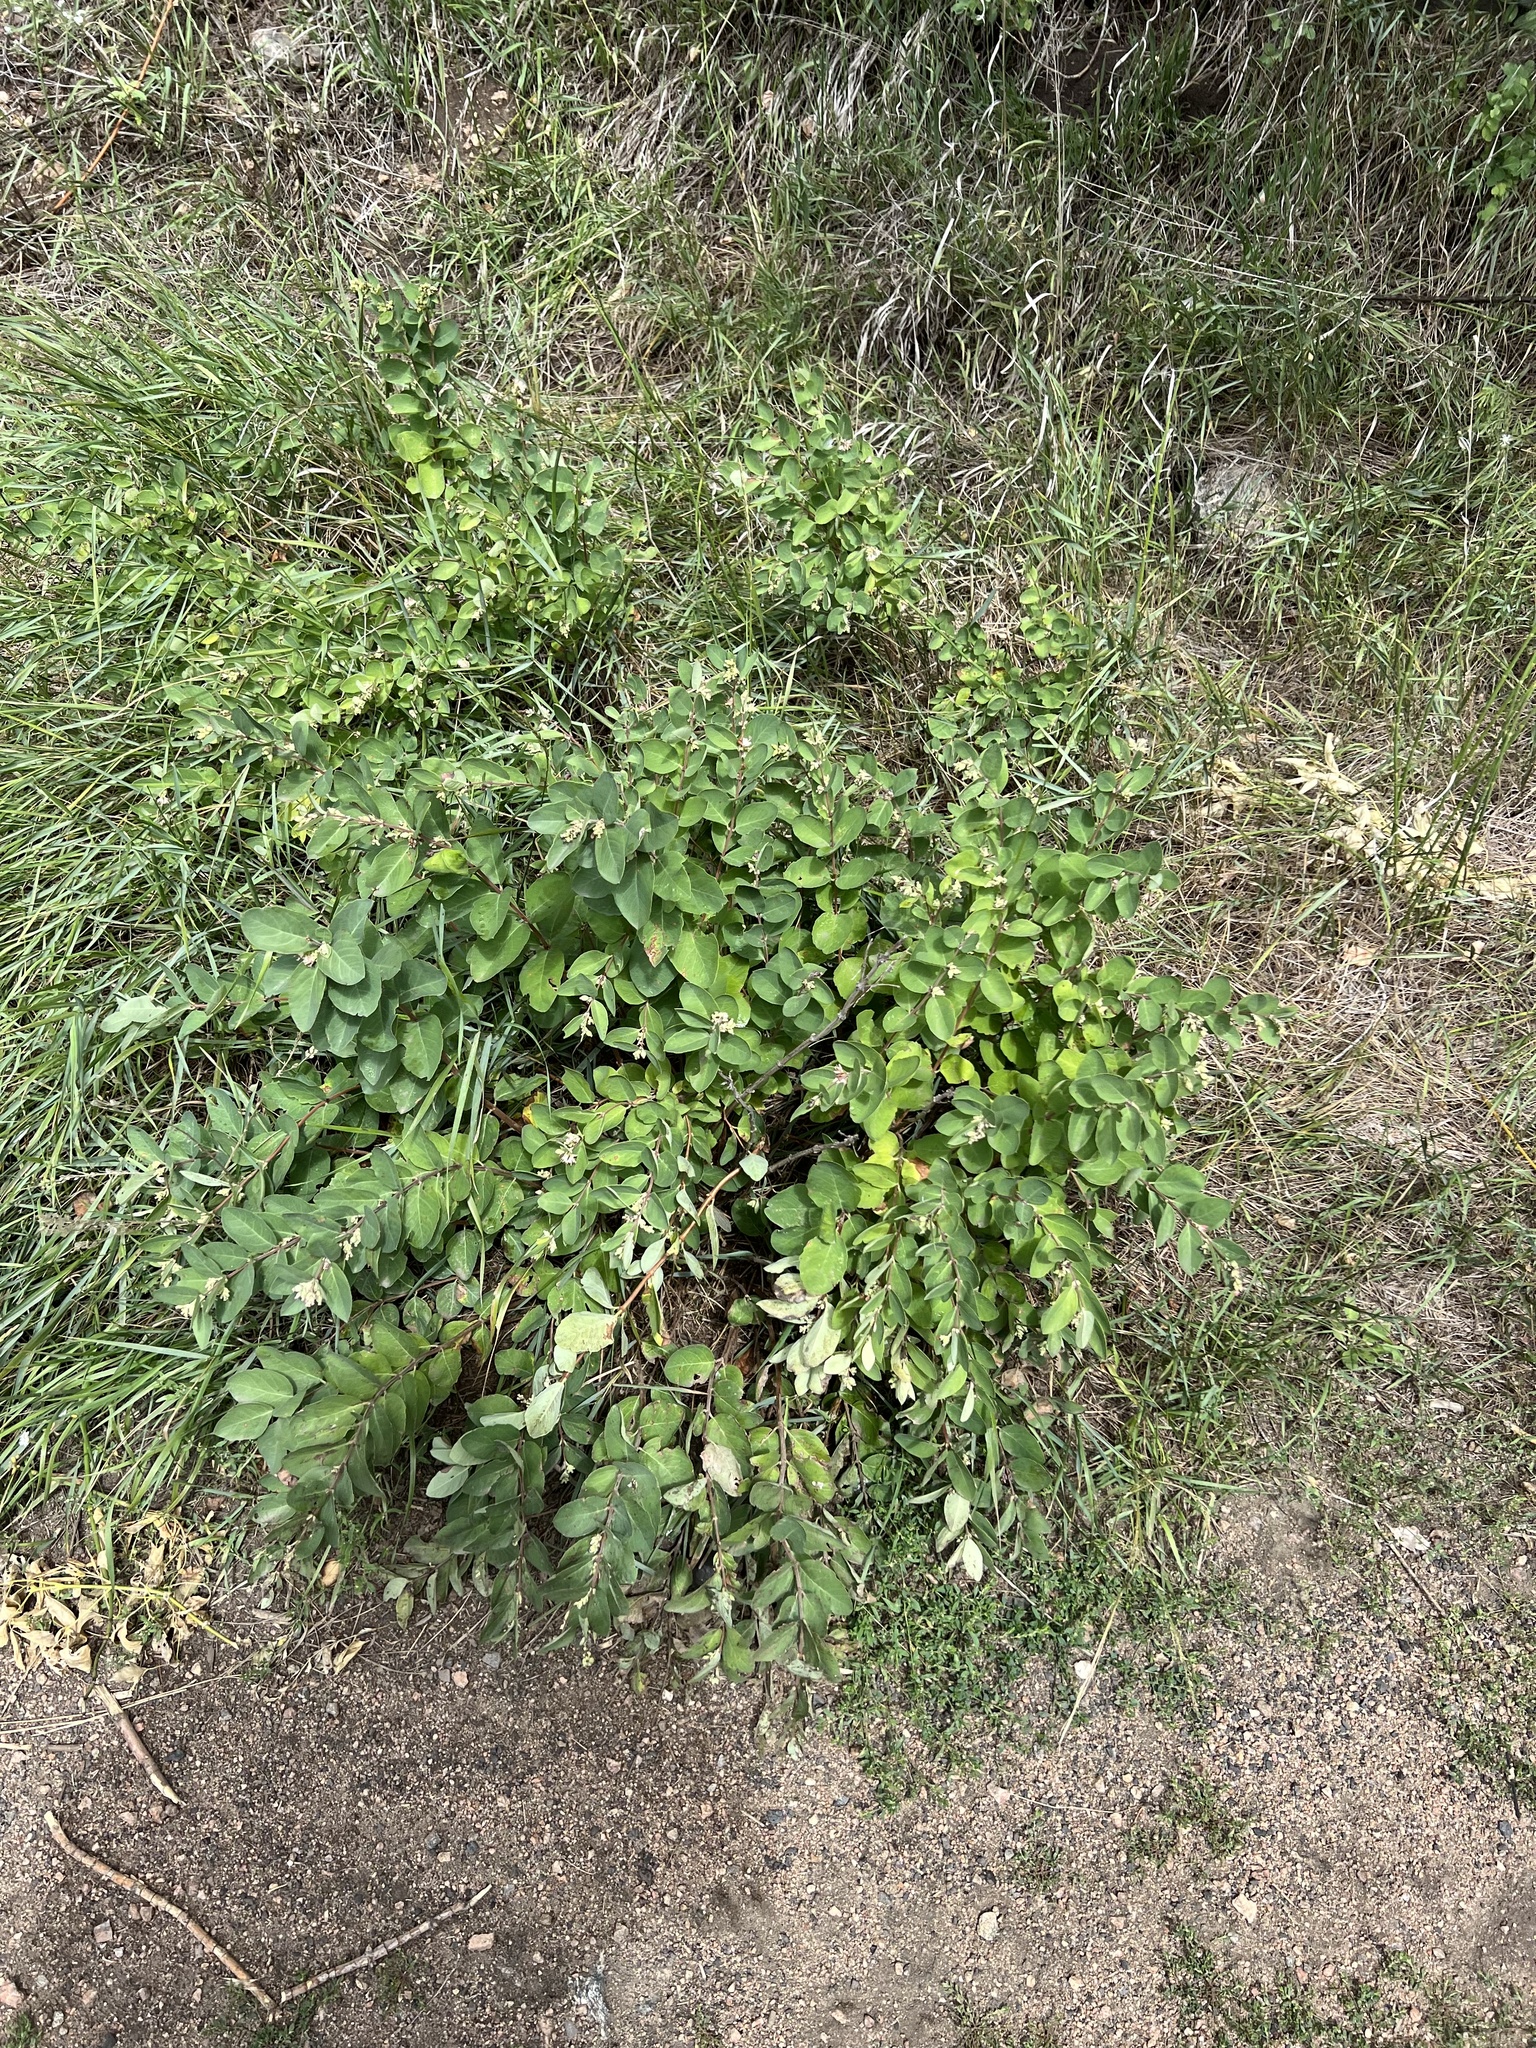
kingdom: Plantae
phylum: Tracheophyta
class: Magnoliopsida
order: Dipsacales
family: Caprifoliaceae
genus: Symphoricarpos
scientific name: Symphoricarpos occidentalis
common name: Wolfberry
